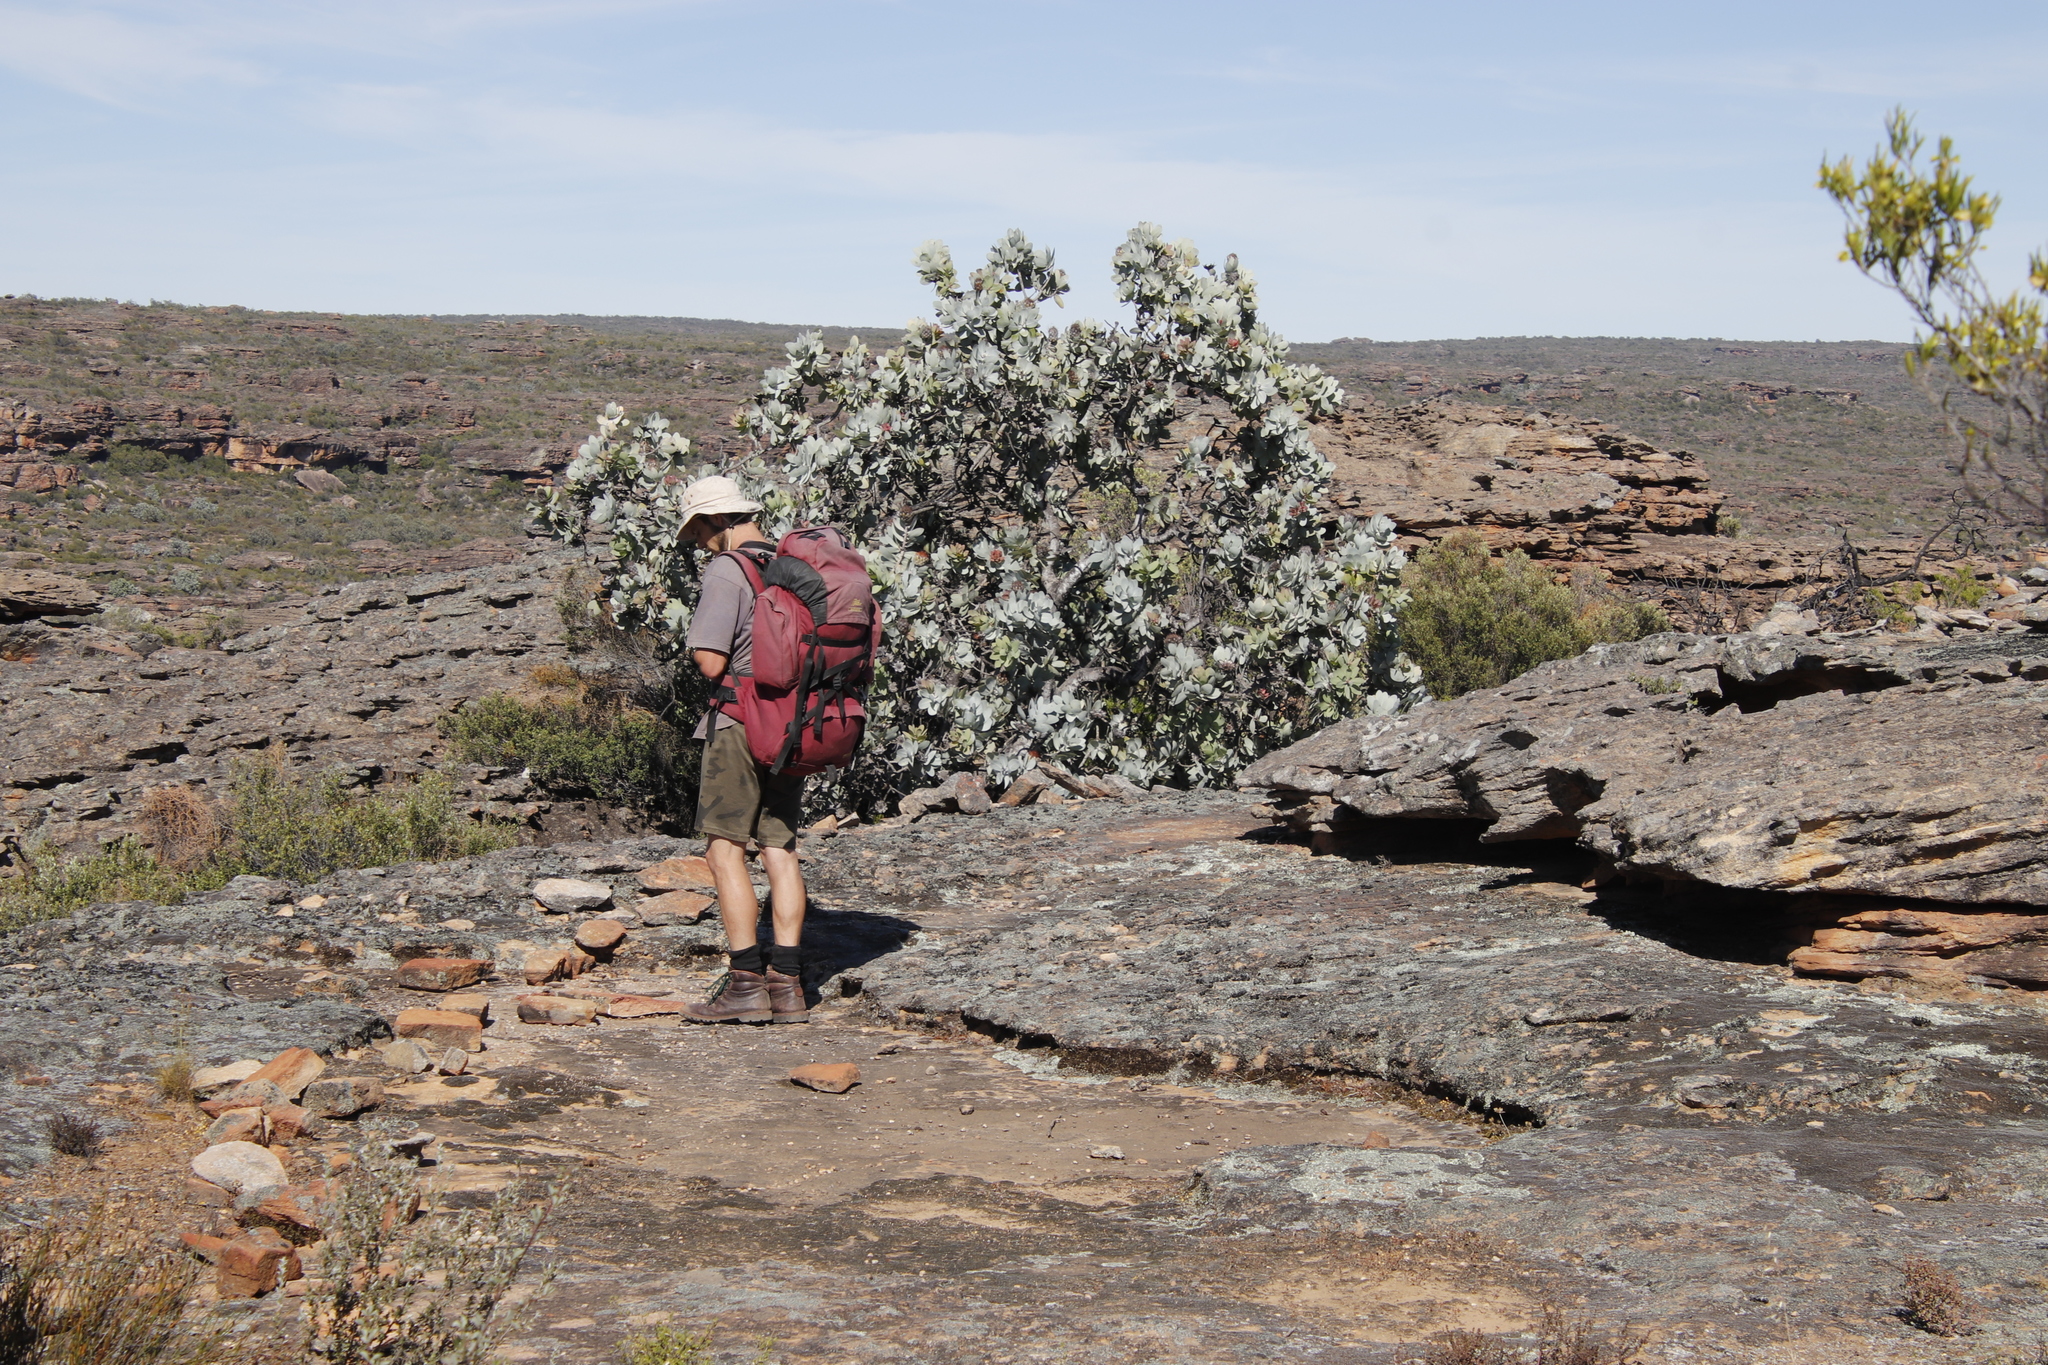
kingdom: Plantae
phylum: Tracheophyta
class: Magnoliopsida
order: Proteales
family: Proteaceae
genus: Protea
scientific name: Protea nitida
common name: Tree protea
